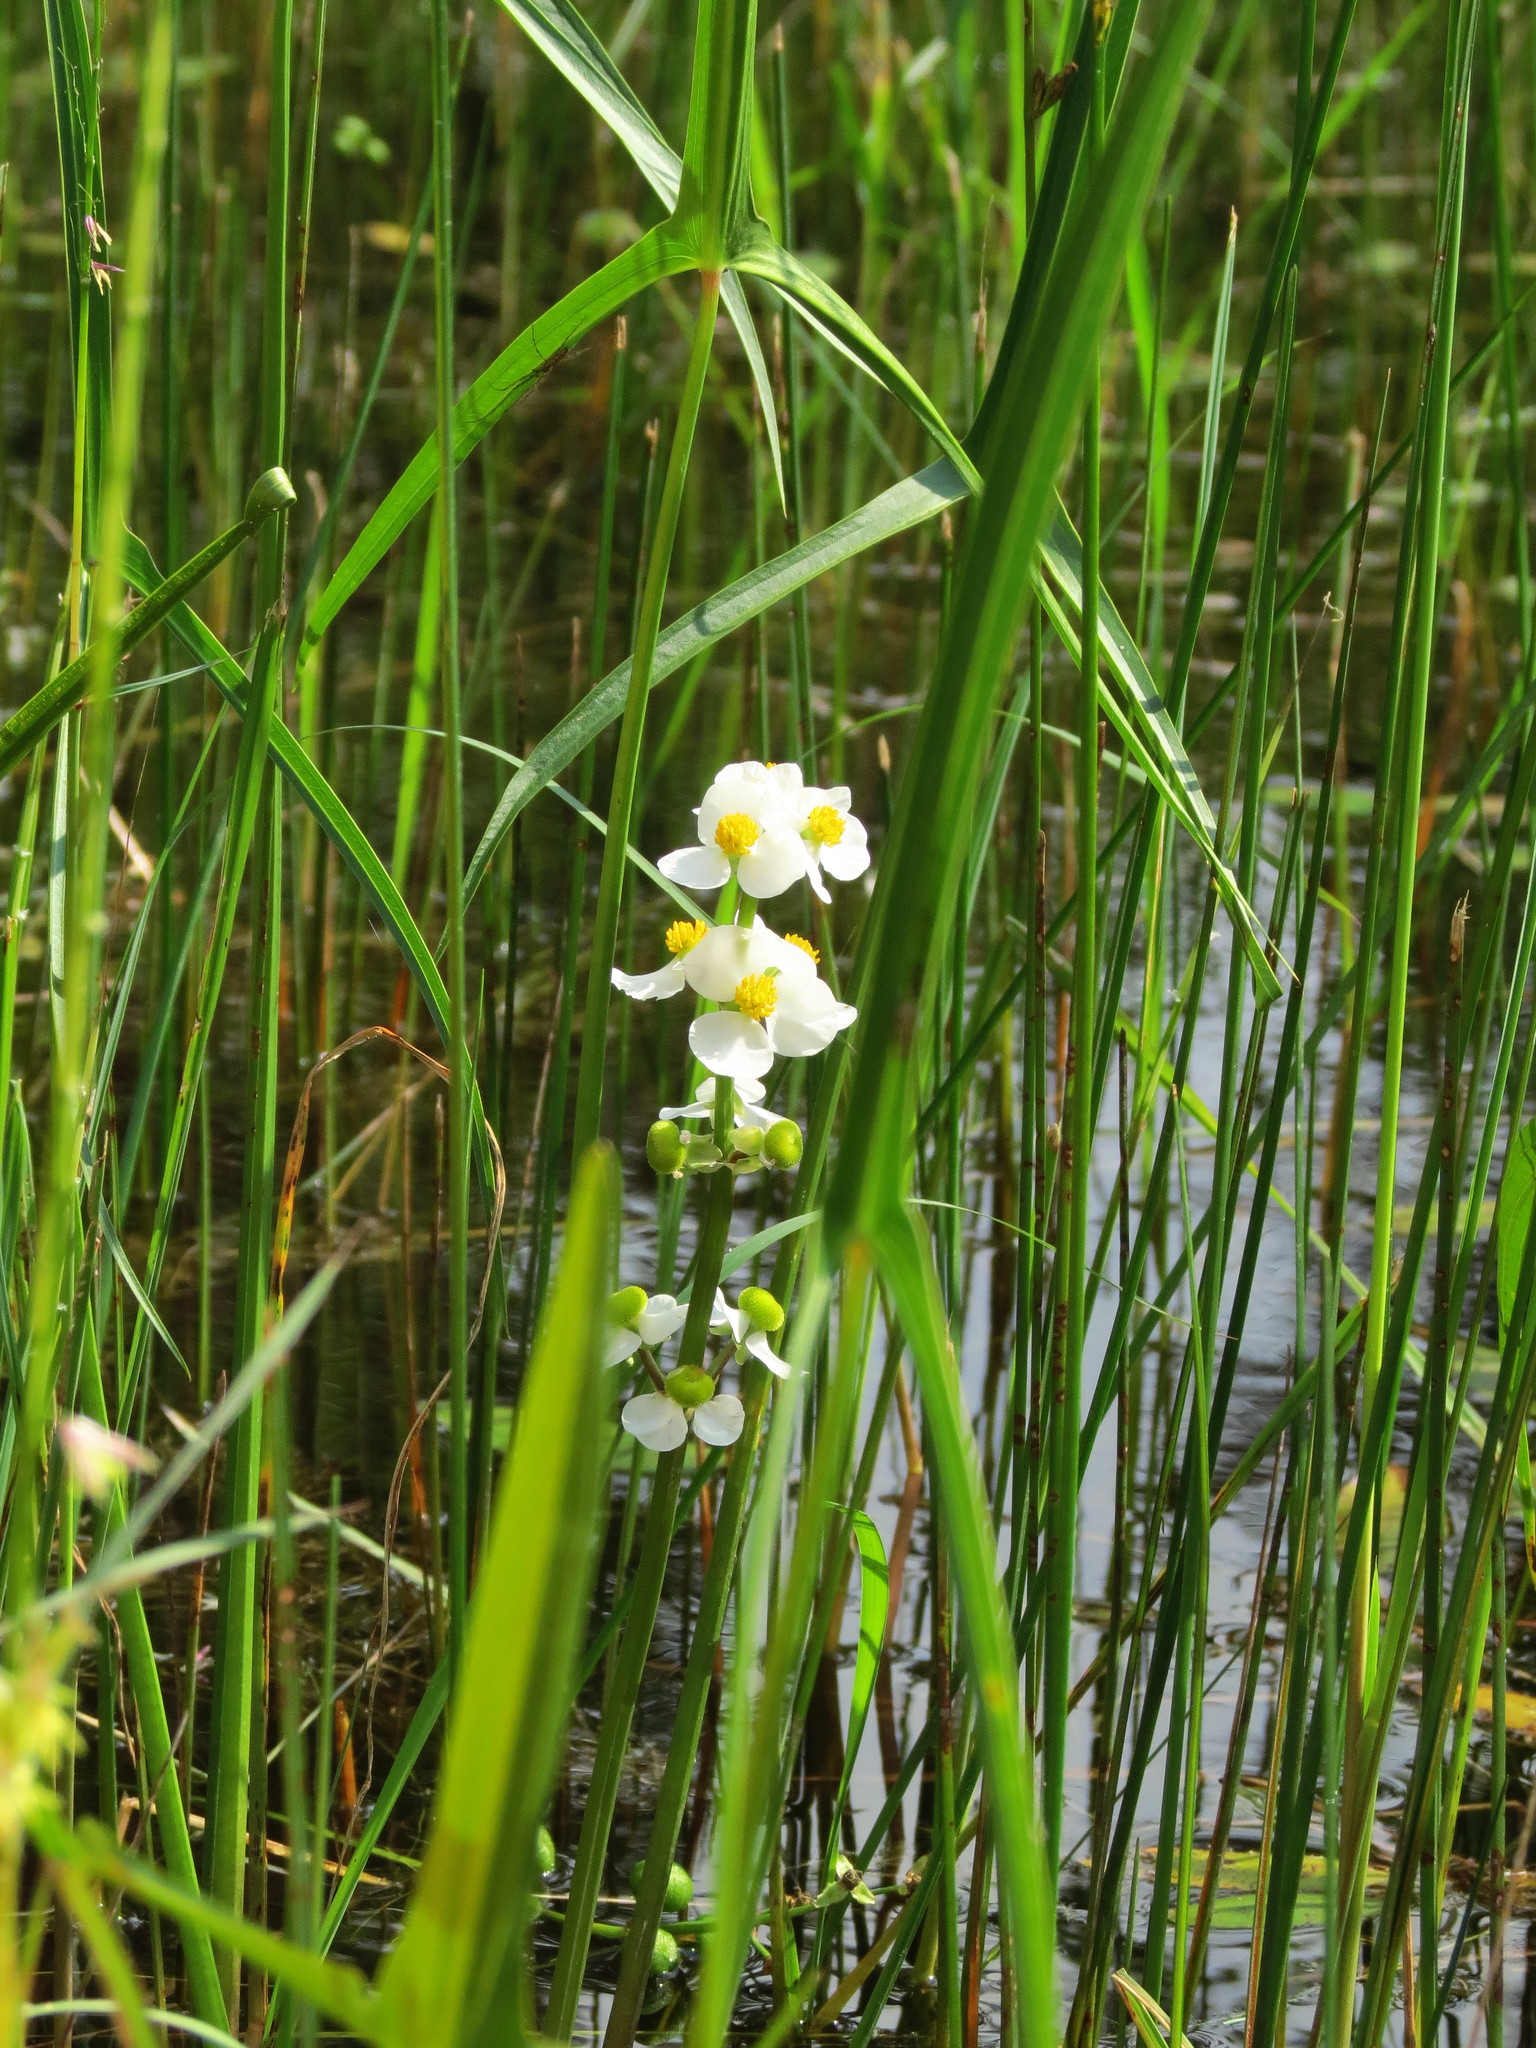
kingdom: Plantae
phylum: Tracheophyta
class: Liliopsida
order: Alismatales
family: Alismataceae
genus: Sagittaria
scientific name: Sagittaria latifolia
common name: Duck-potato
